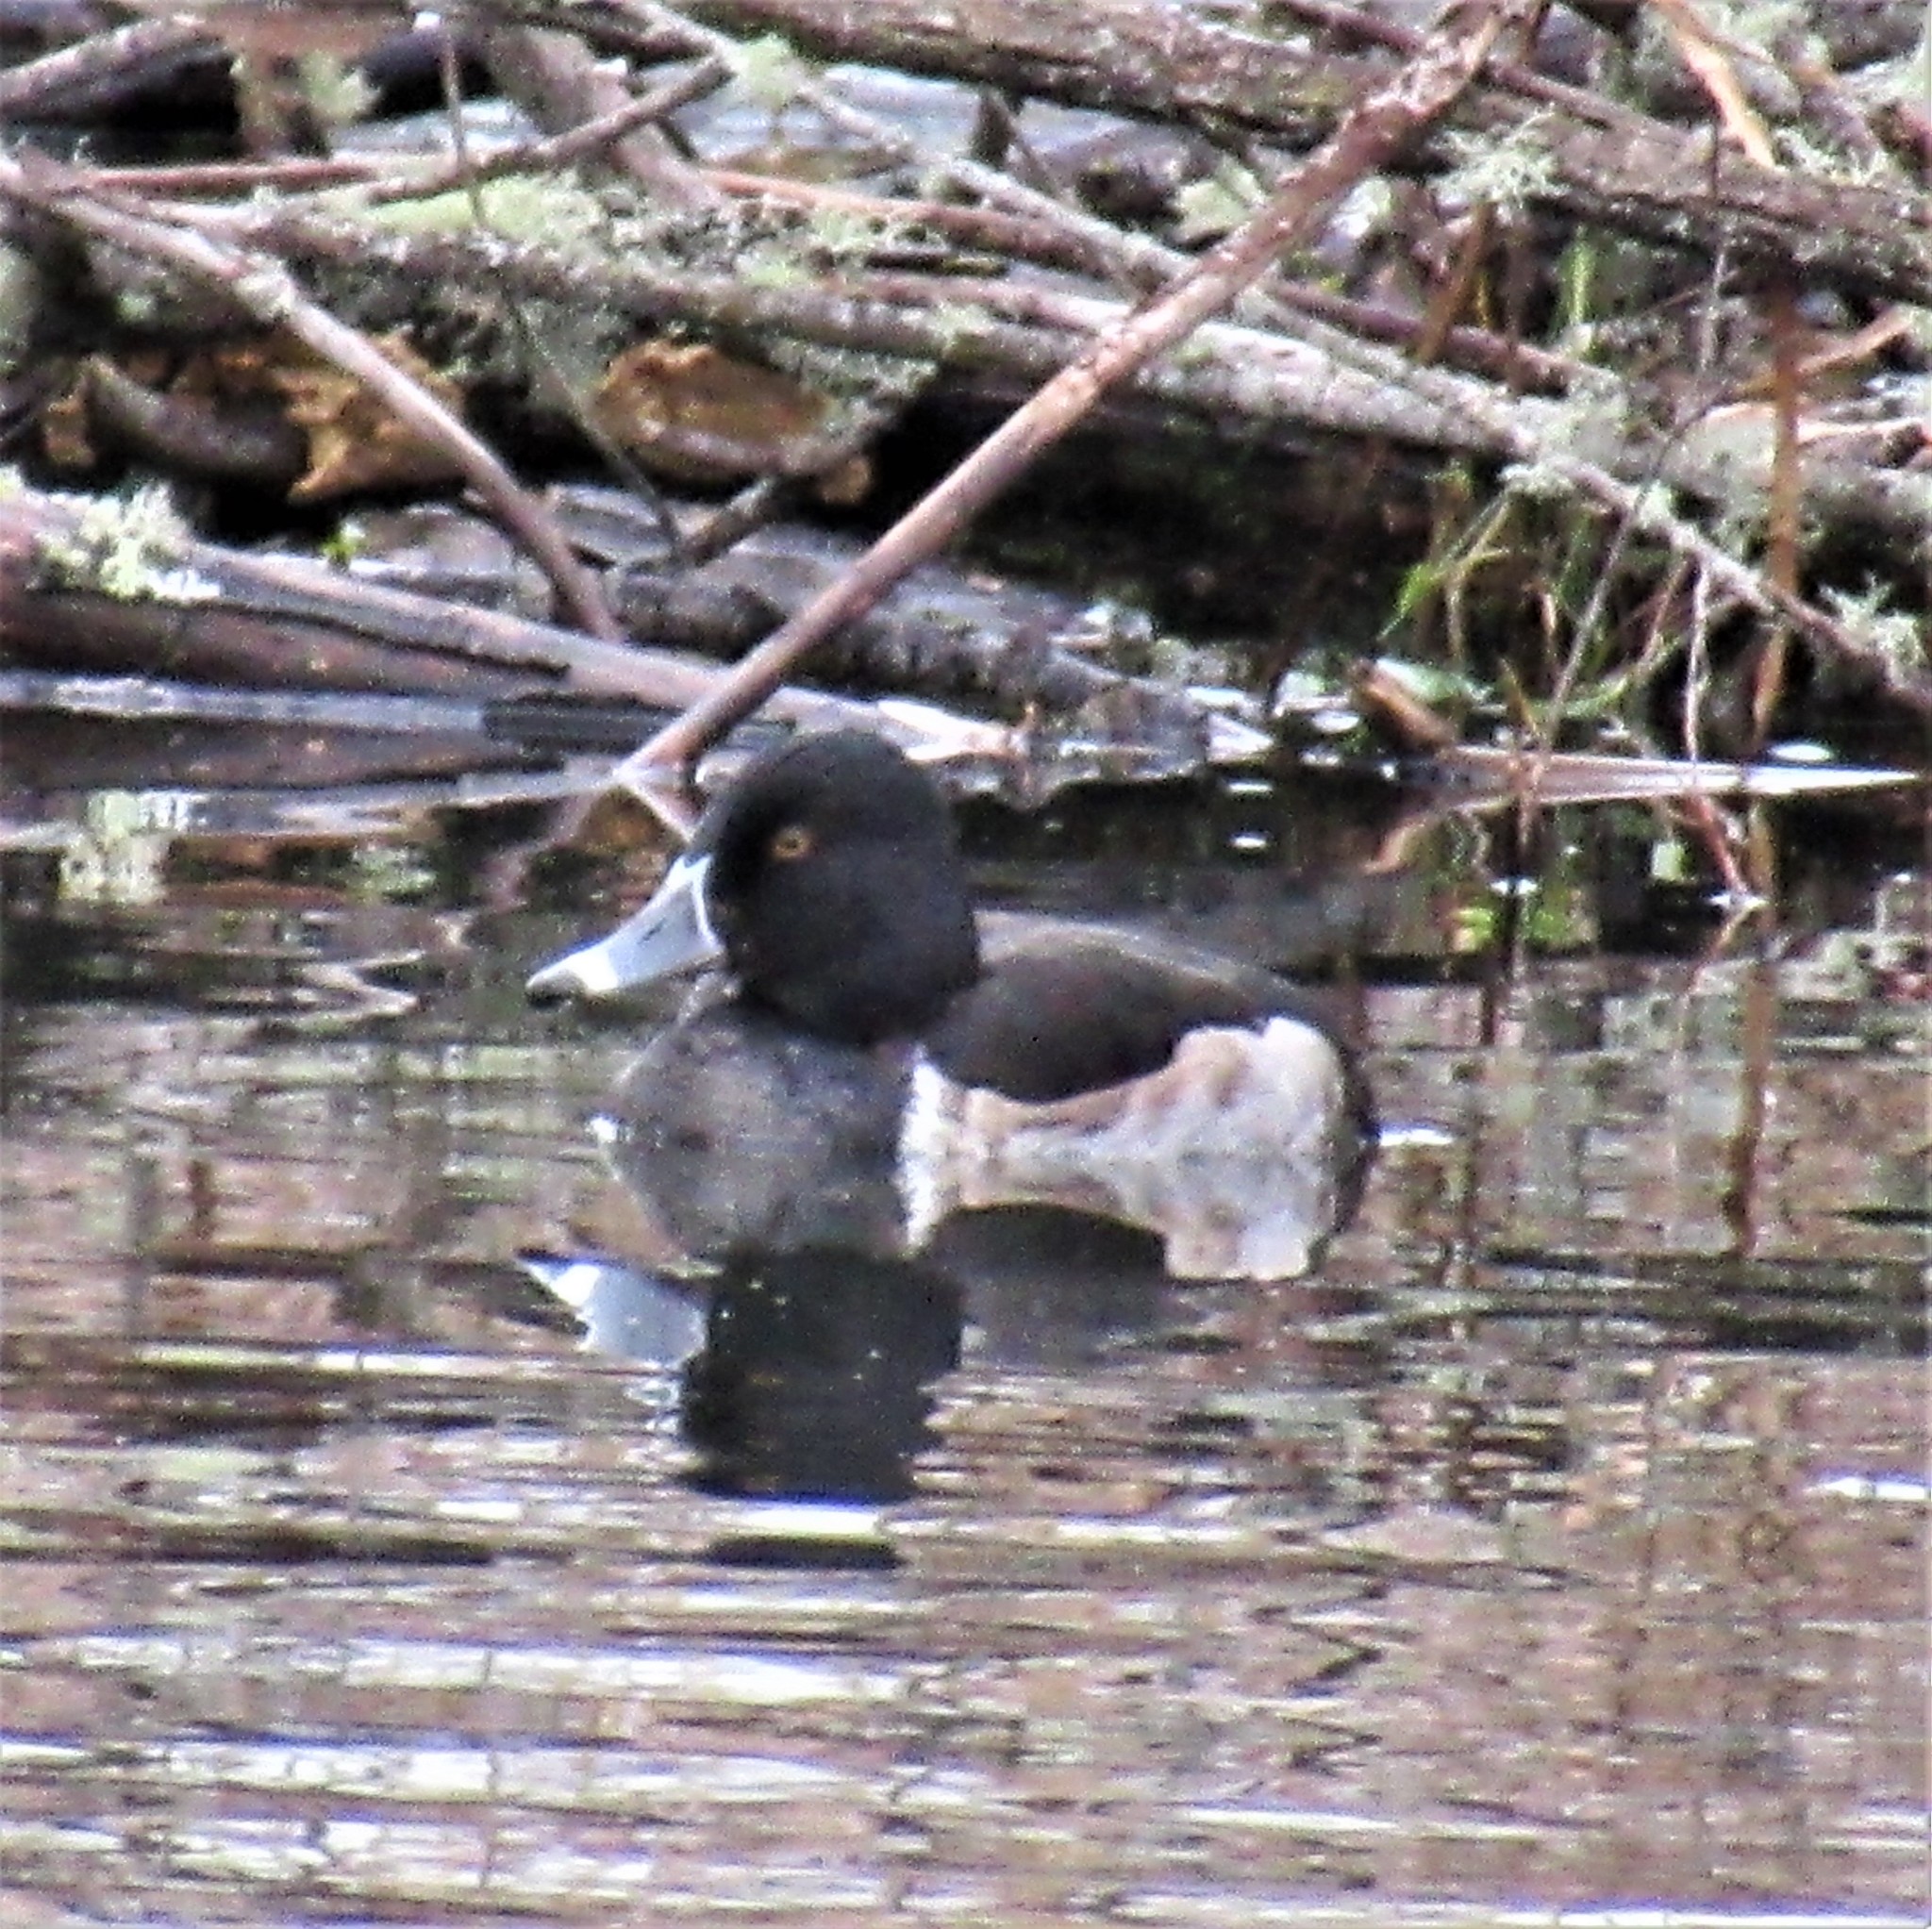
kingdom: Animalia
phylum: Chordata
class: Aves
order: Anseriformes
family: Anatidae
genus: Aythya
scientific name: Aythya collaris
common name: Ring-necked duck
